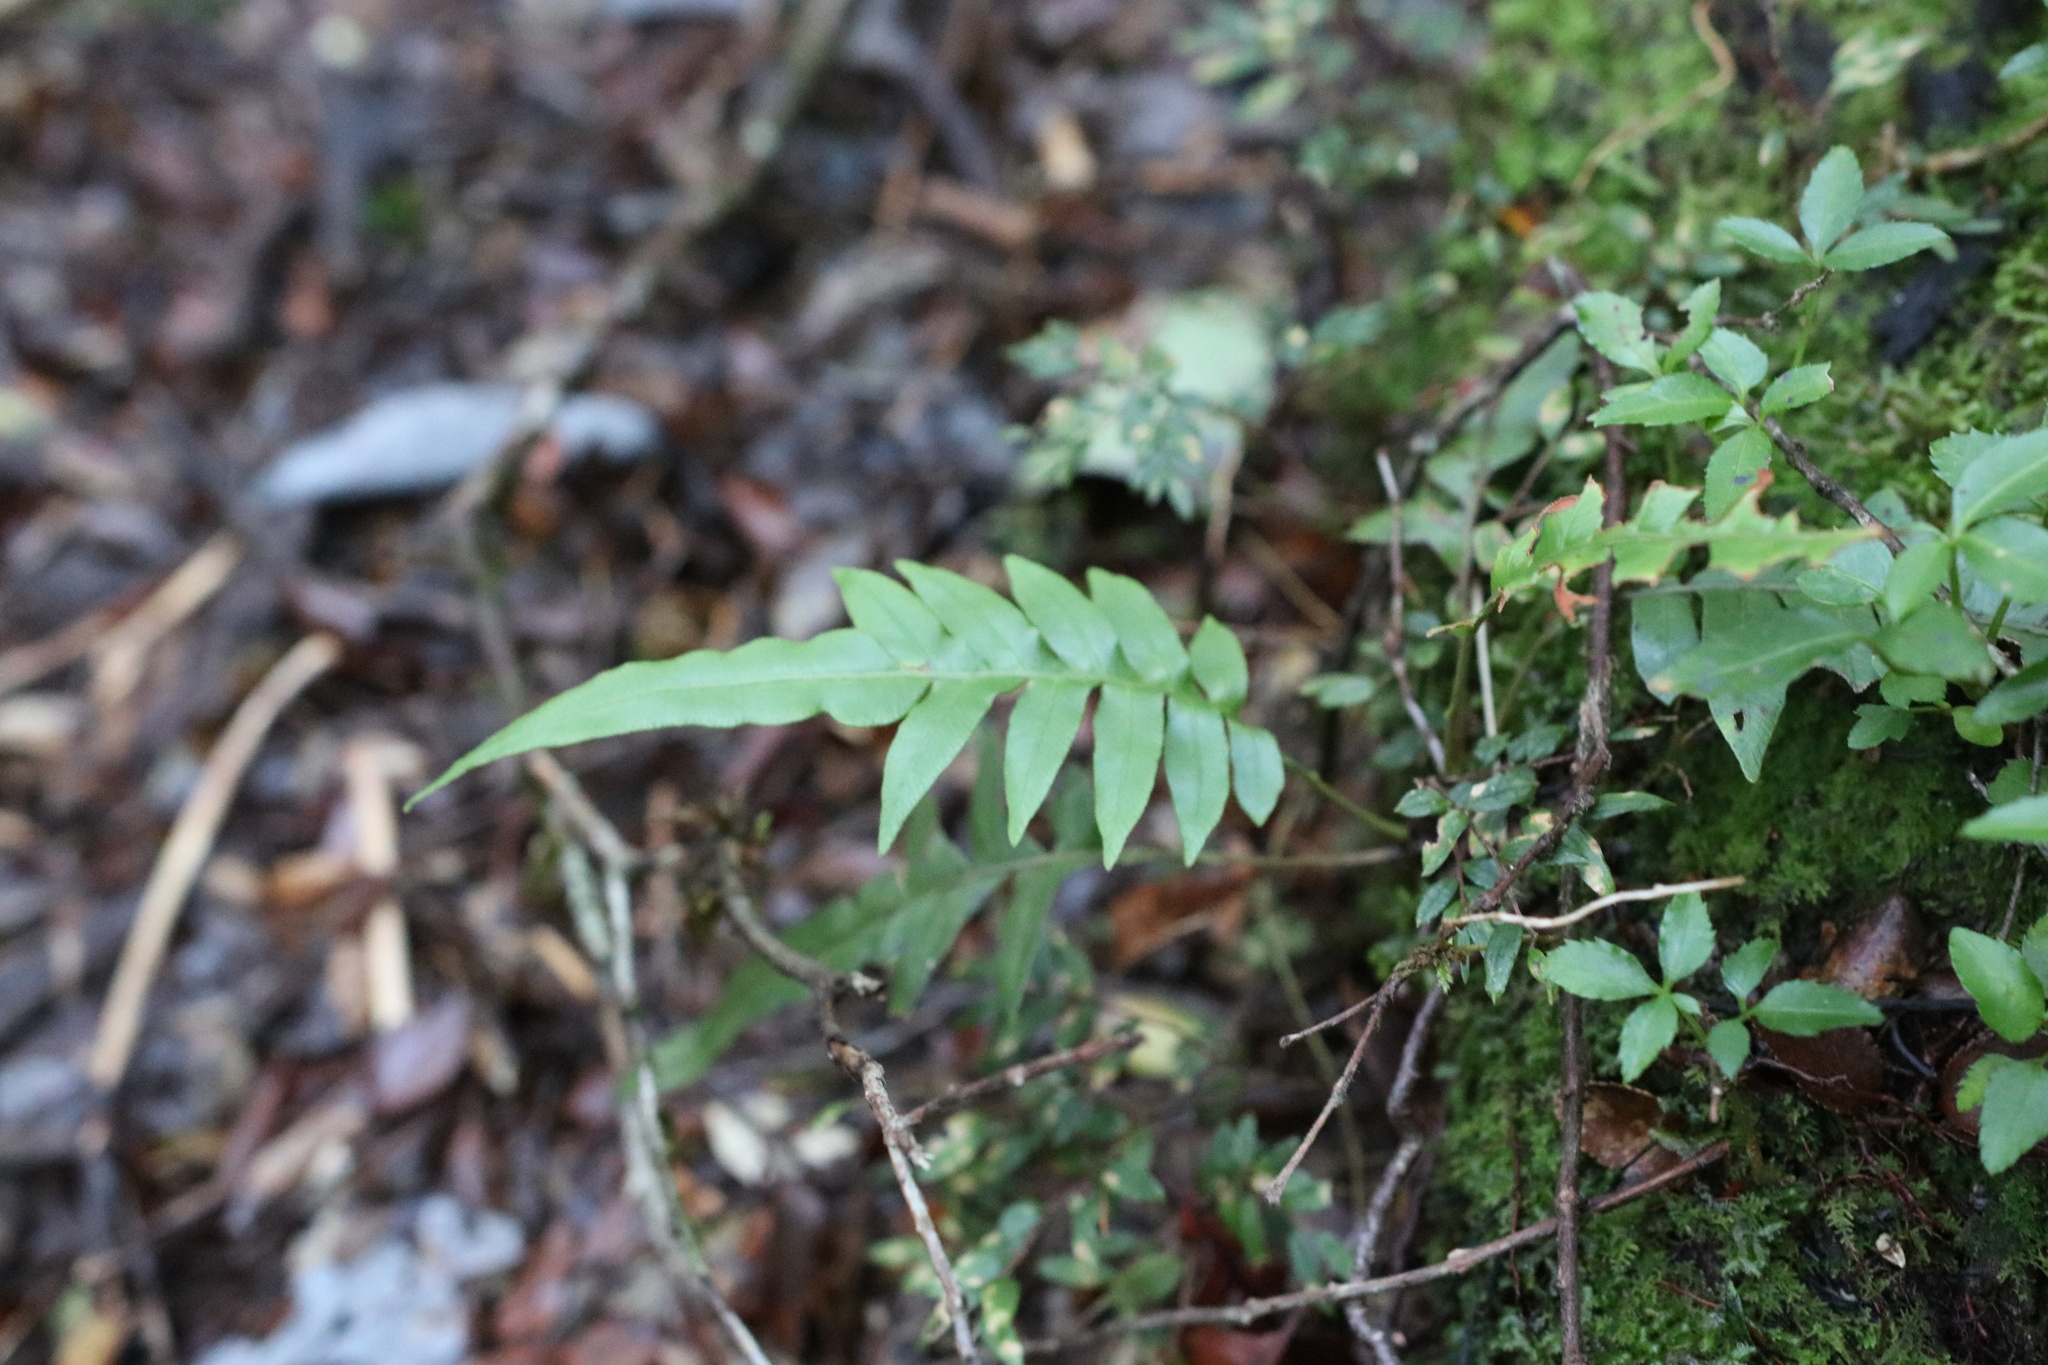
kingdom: Plantae
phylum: Tracheophyta
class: Polypodiopsida
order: Polypodiales
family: Blechnaceae
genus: Lomariocycas
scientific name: Lomariocycas magellanica
